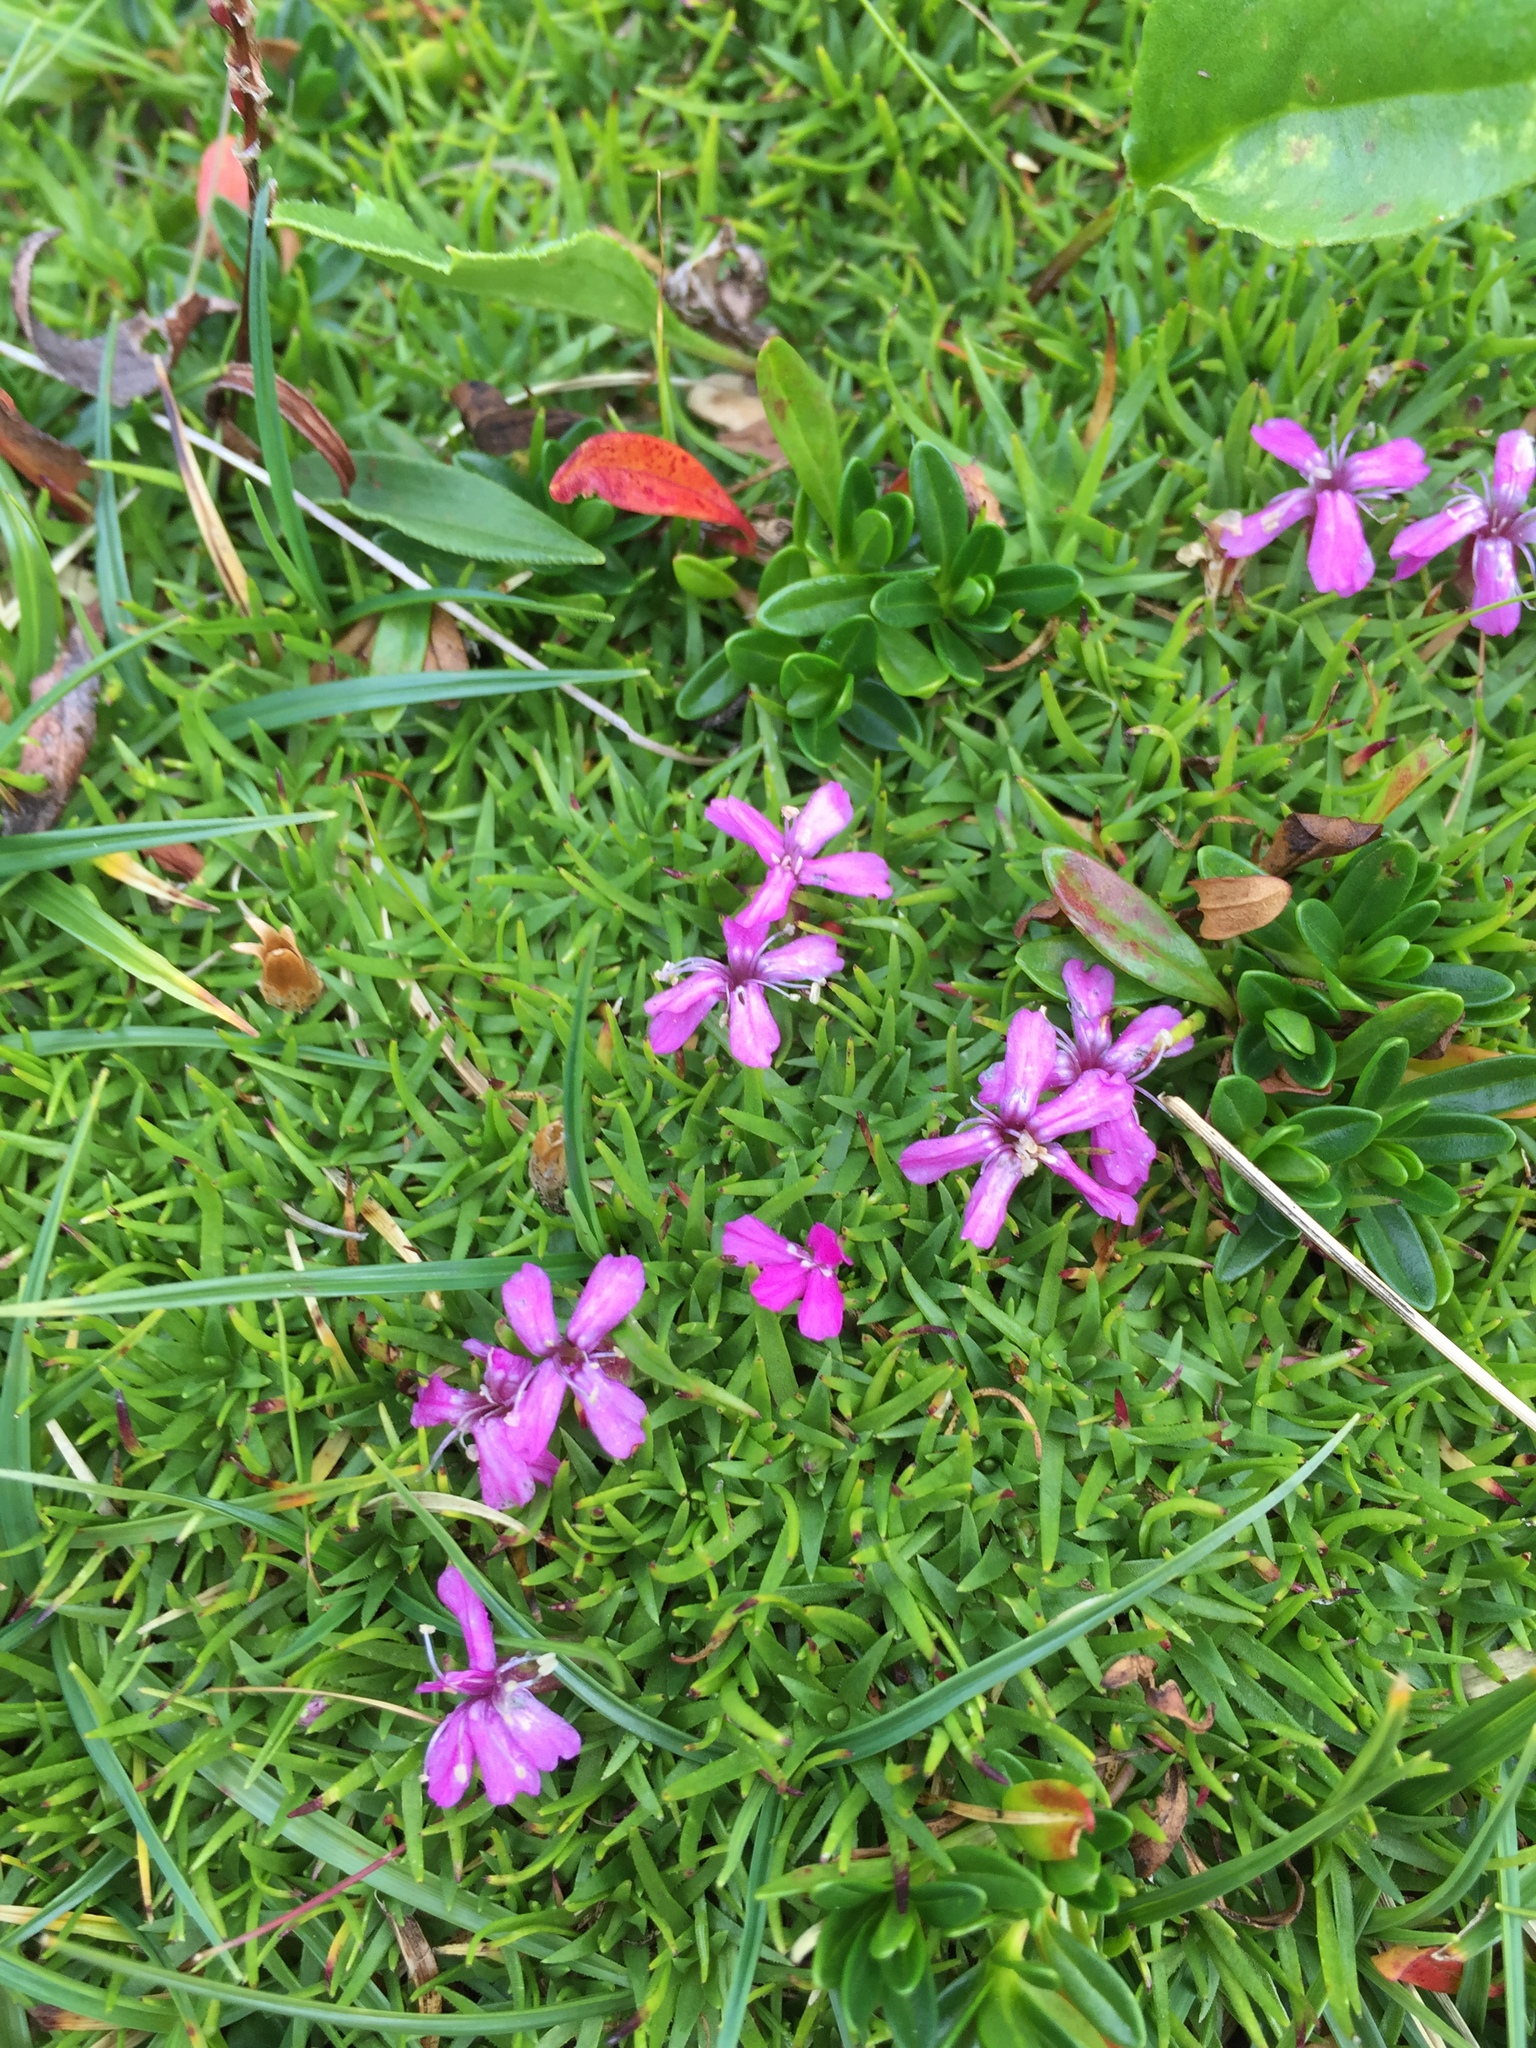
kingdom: Plantae
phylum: Tracheophyta
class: Magnoliopsida
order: Caryophyllales
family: Caryophyllaceae
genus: Silene
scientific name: Silene acaulis
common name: Moss campion
